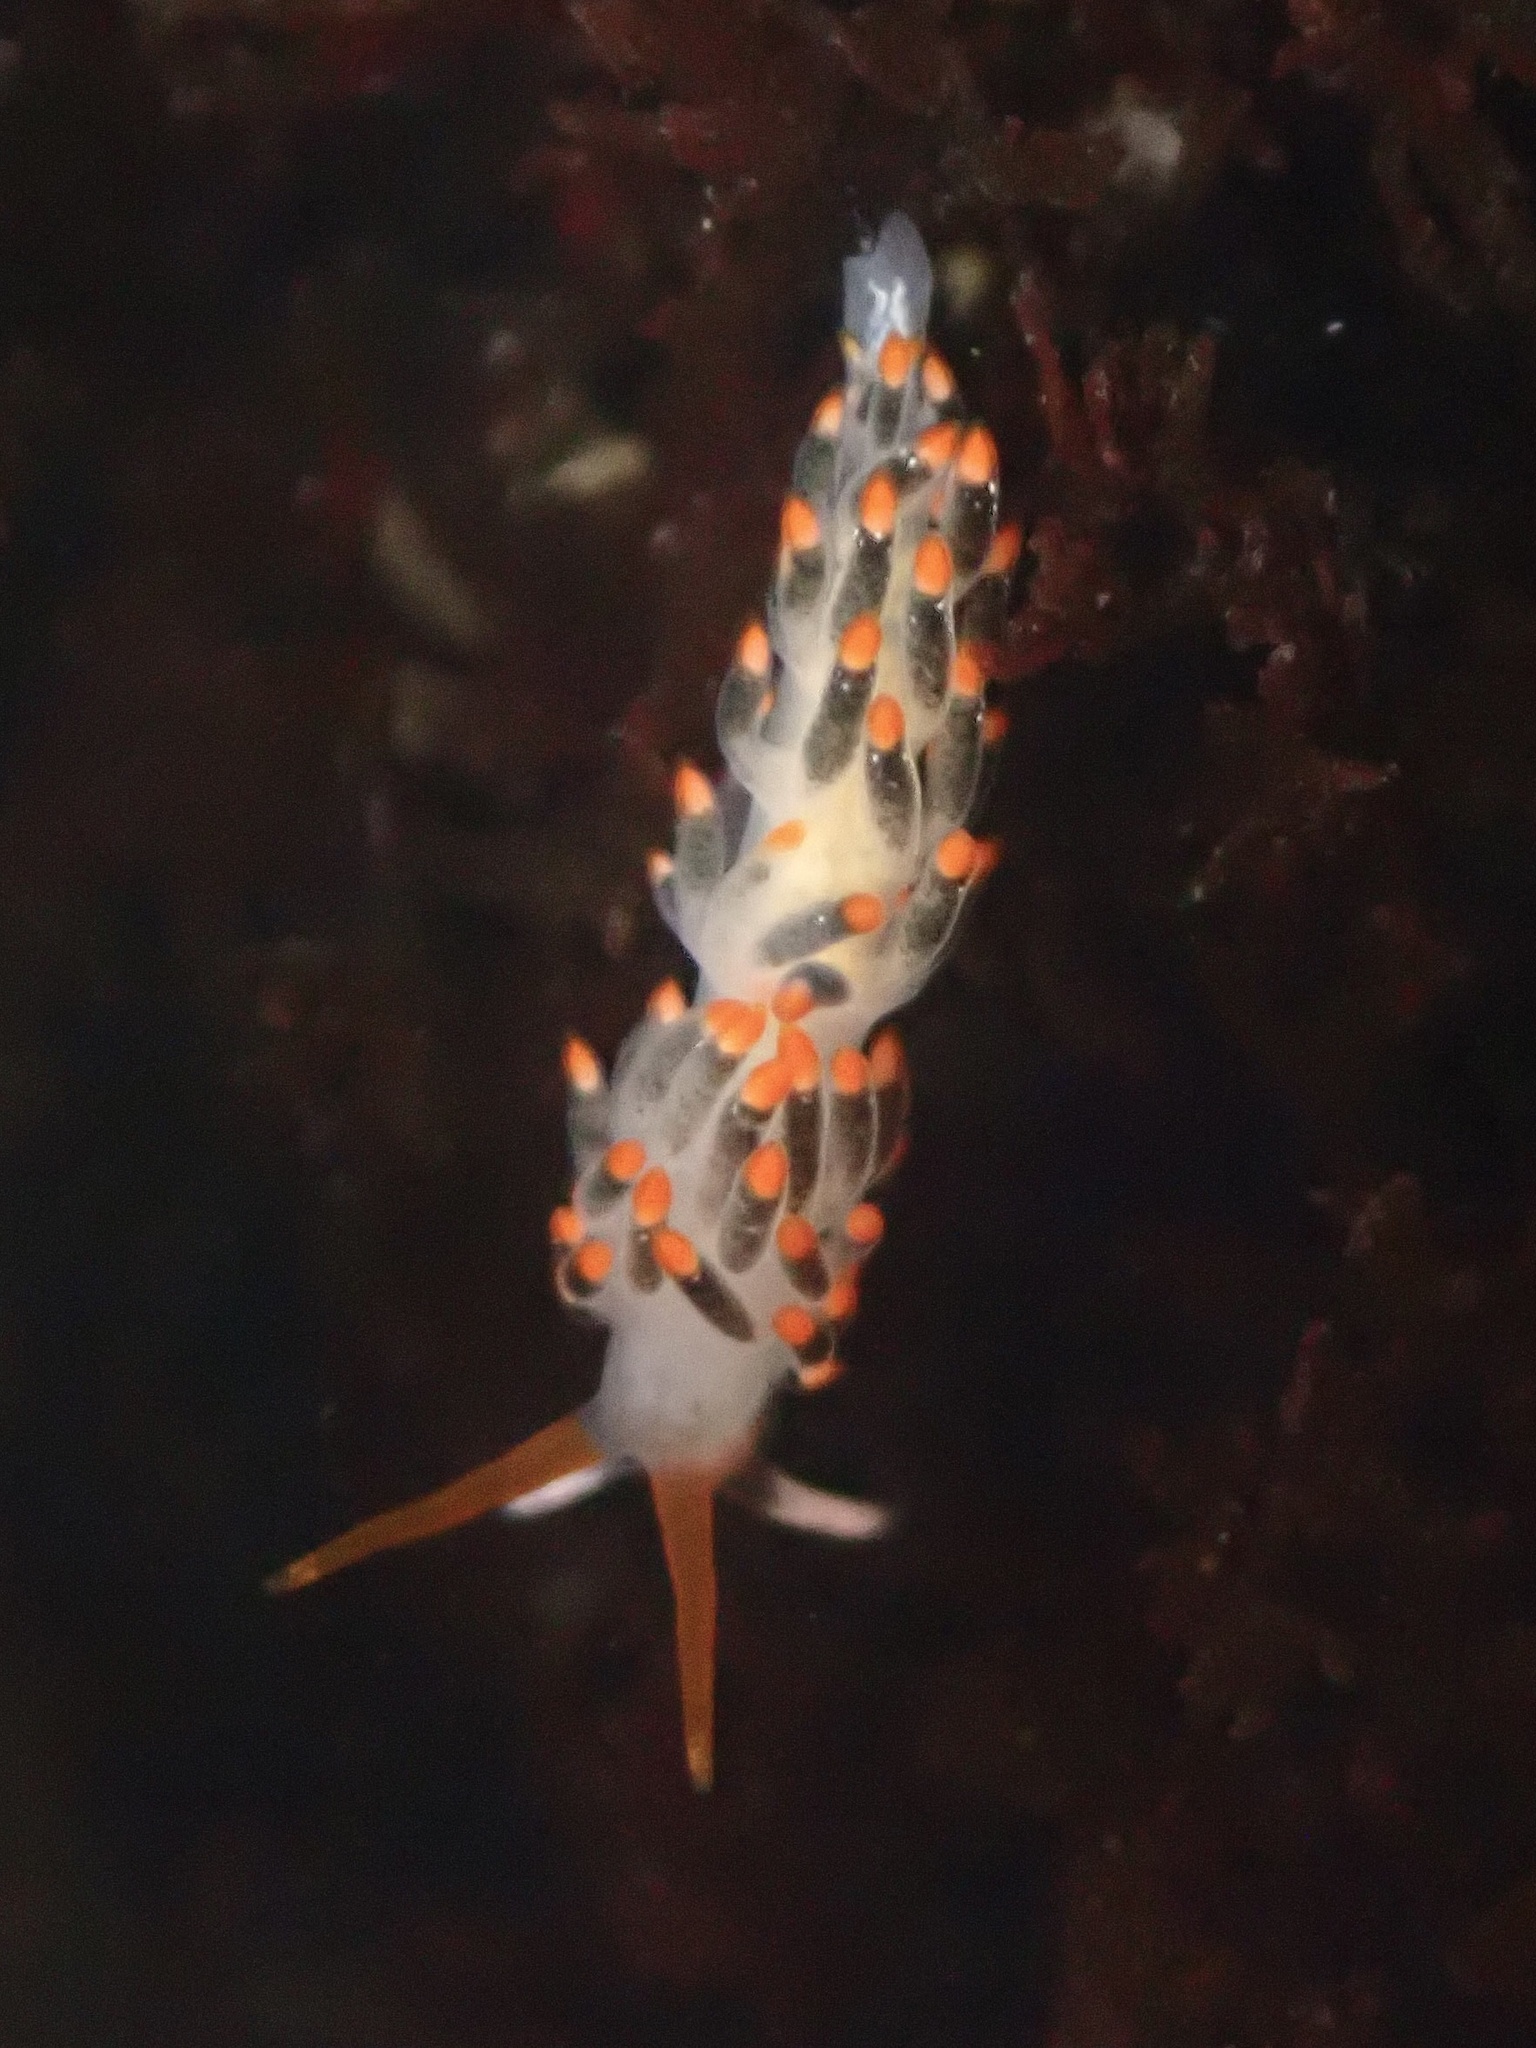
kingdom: Animalia
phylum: Mollusca
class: Gastropoda
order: Nudibranchia
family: Trinchesiidae
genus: Diaphoreolis
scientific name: Diaphoreolis lagunae
